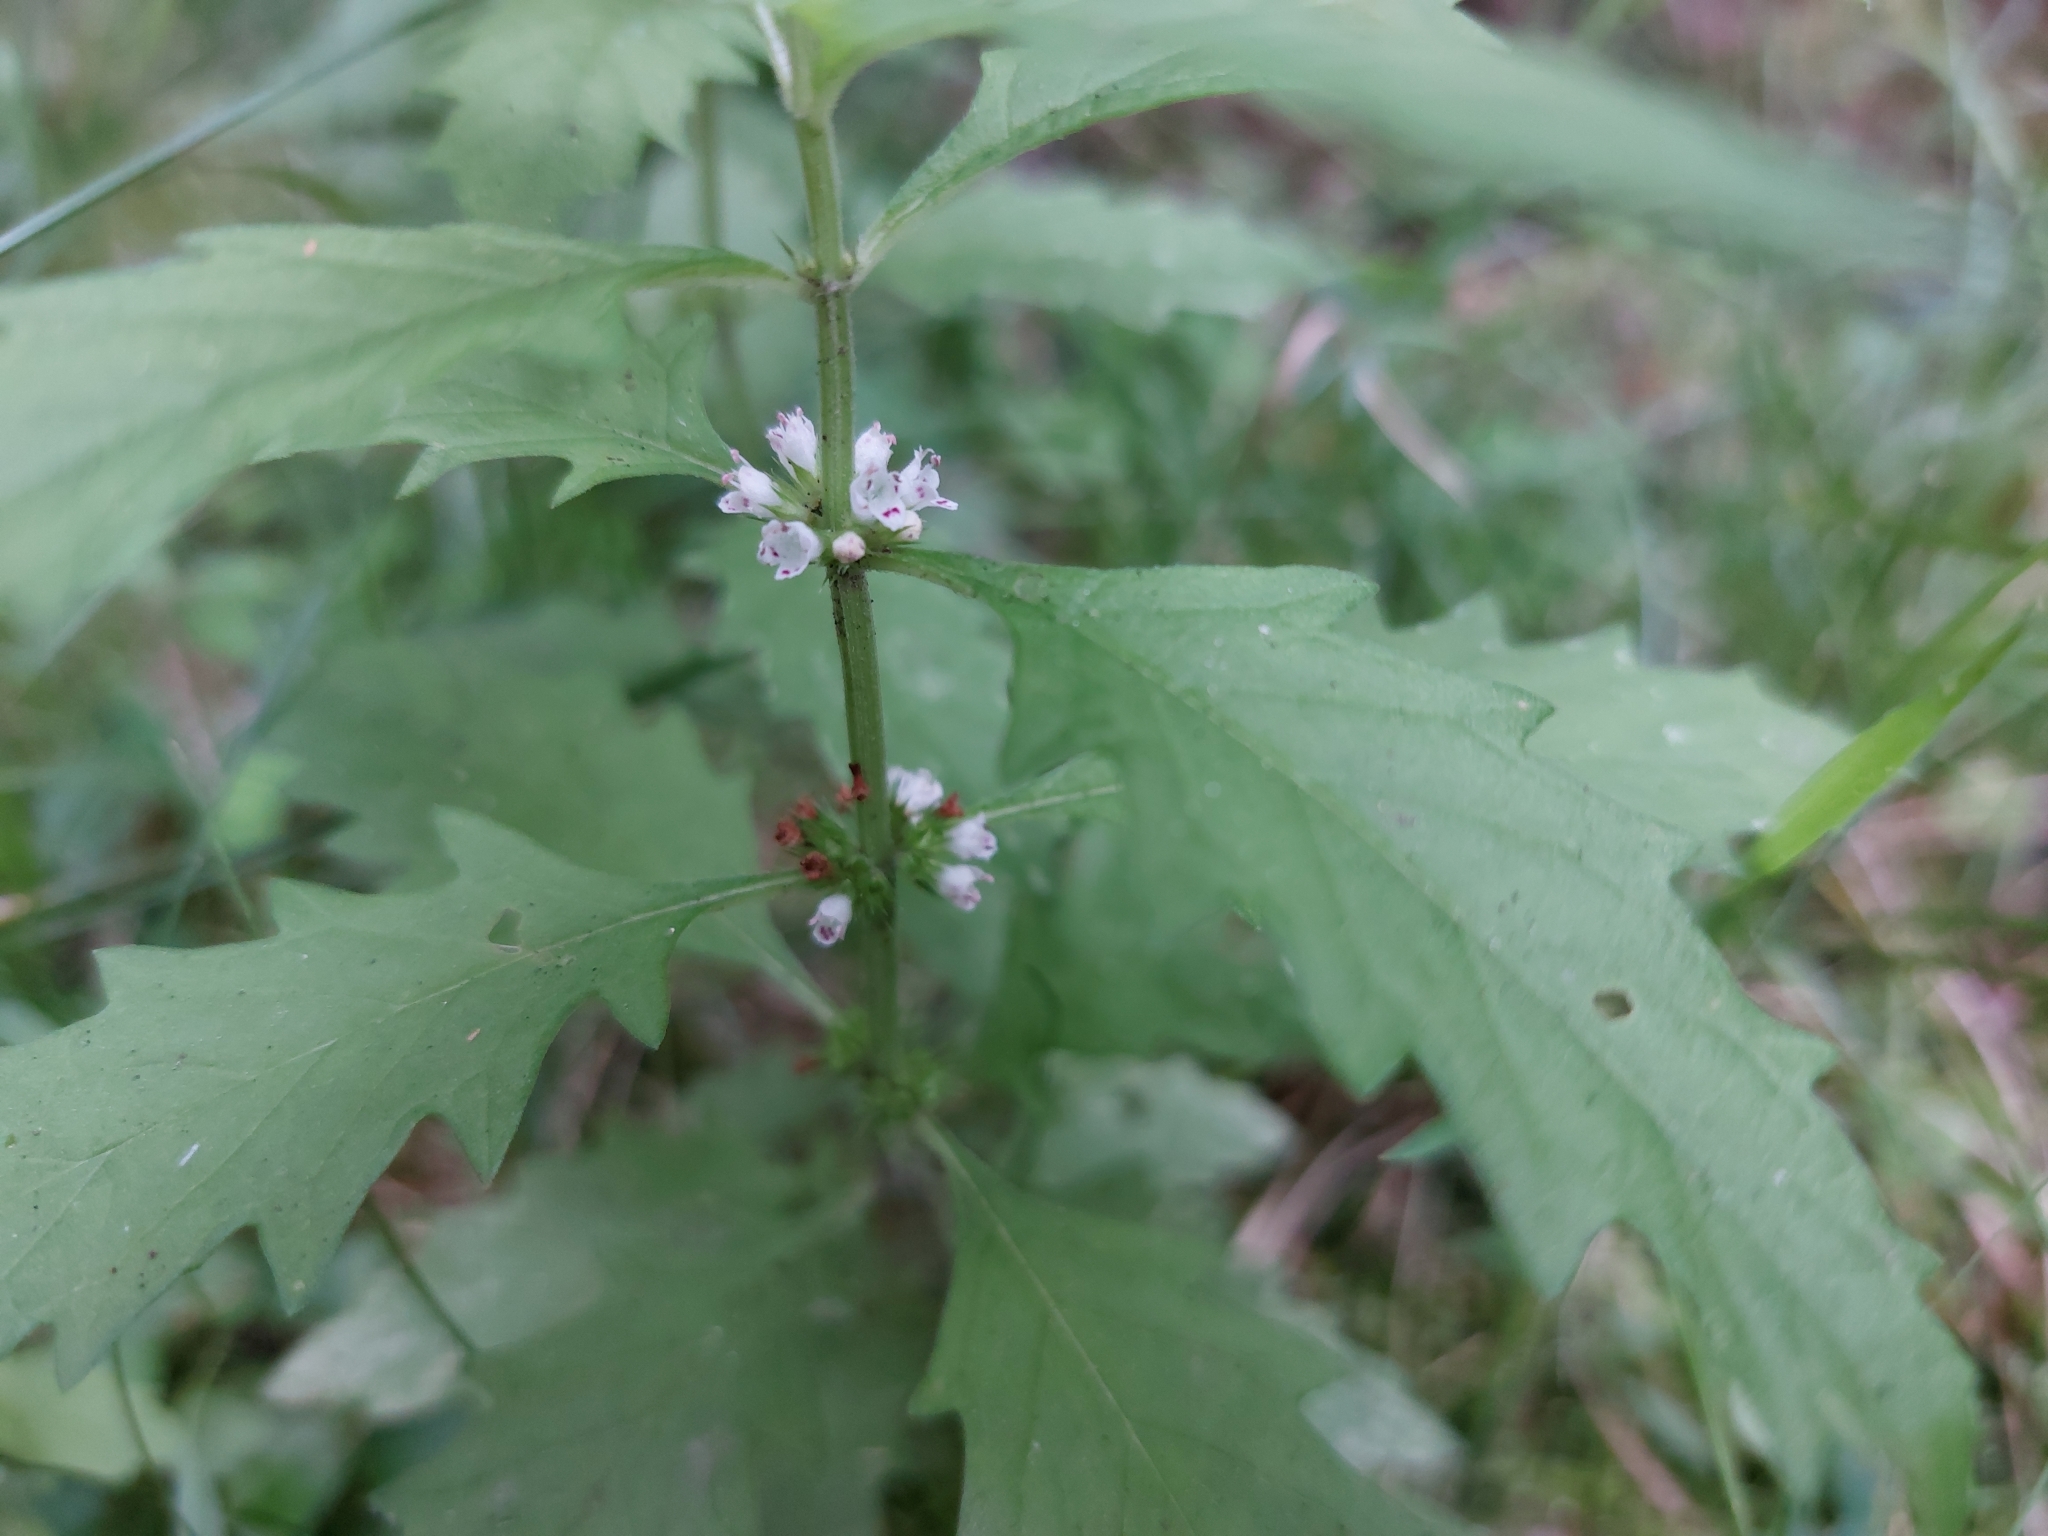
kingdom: Plantae
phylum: Tracheophyta
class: Magnoliopsida
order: Lamiales
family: Lamiaceae
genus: Lycopus
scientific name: Lycopus europaeus
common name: European bugleweed
